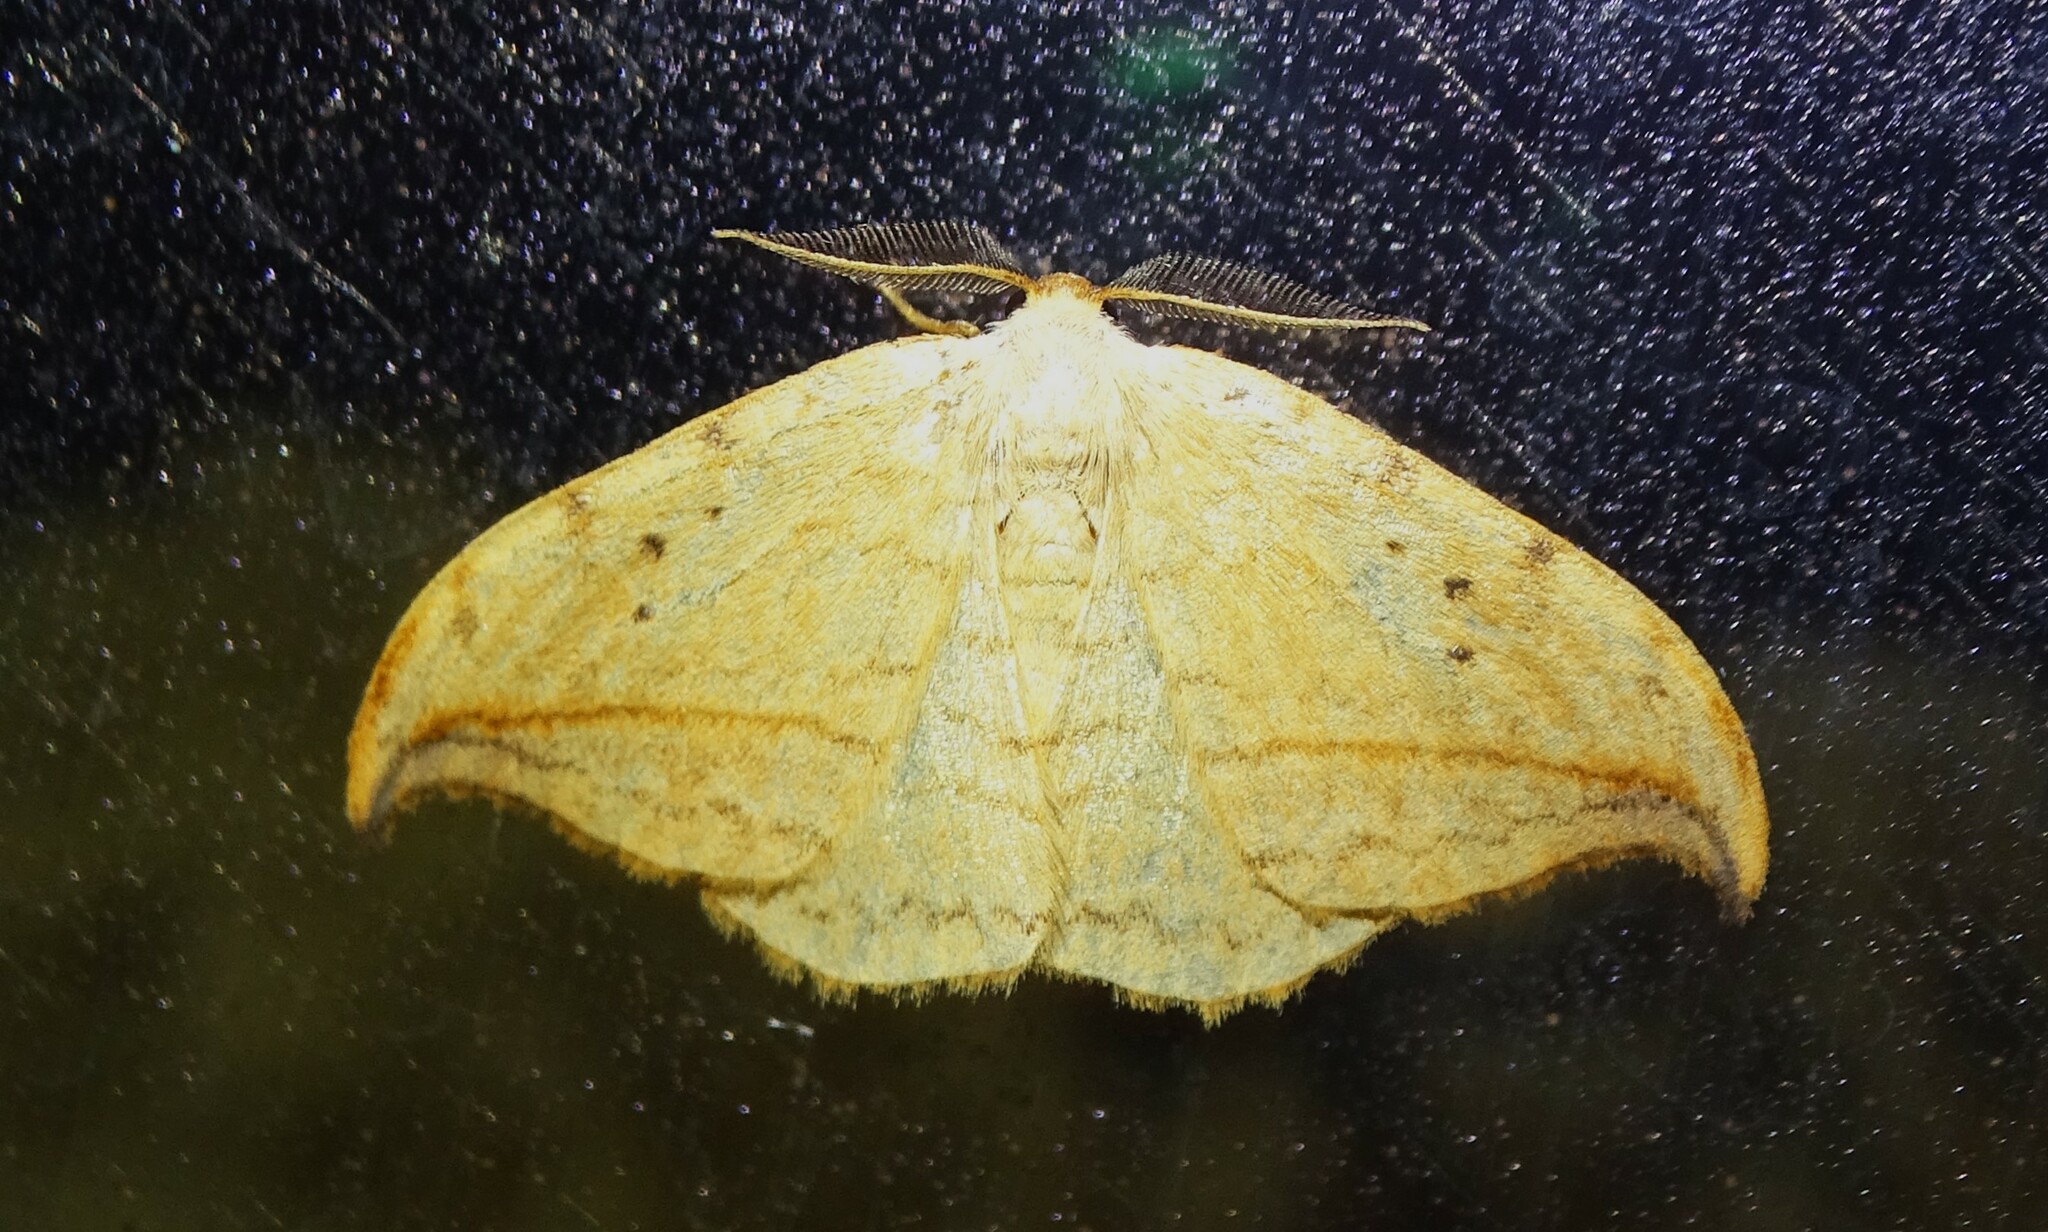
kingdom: Animalia
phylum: Arthropoda
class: Insecta
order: Lepidoptera
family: Drepanidae
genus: Drepana
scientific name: Drepana arcuata
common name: Arched hooktip moth
